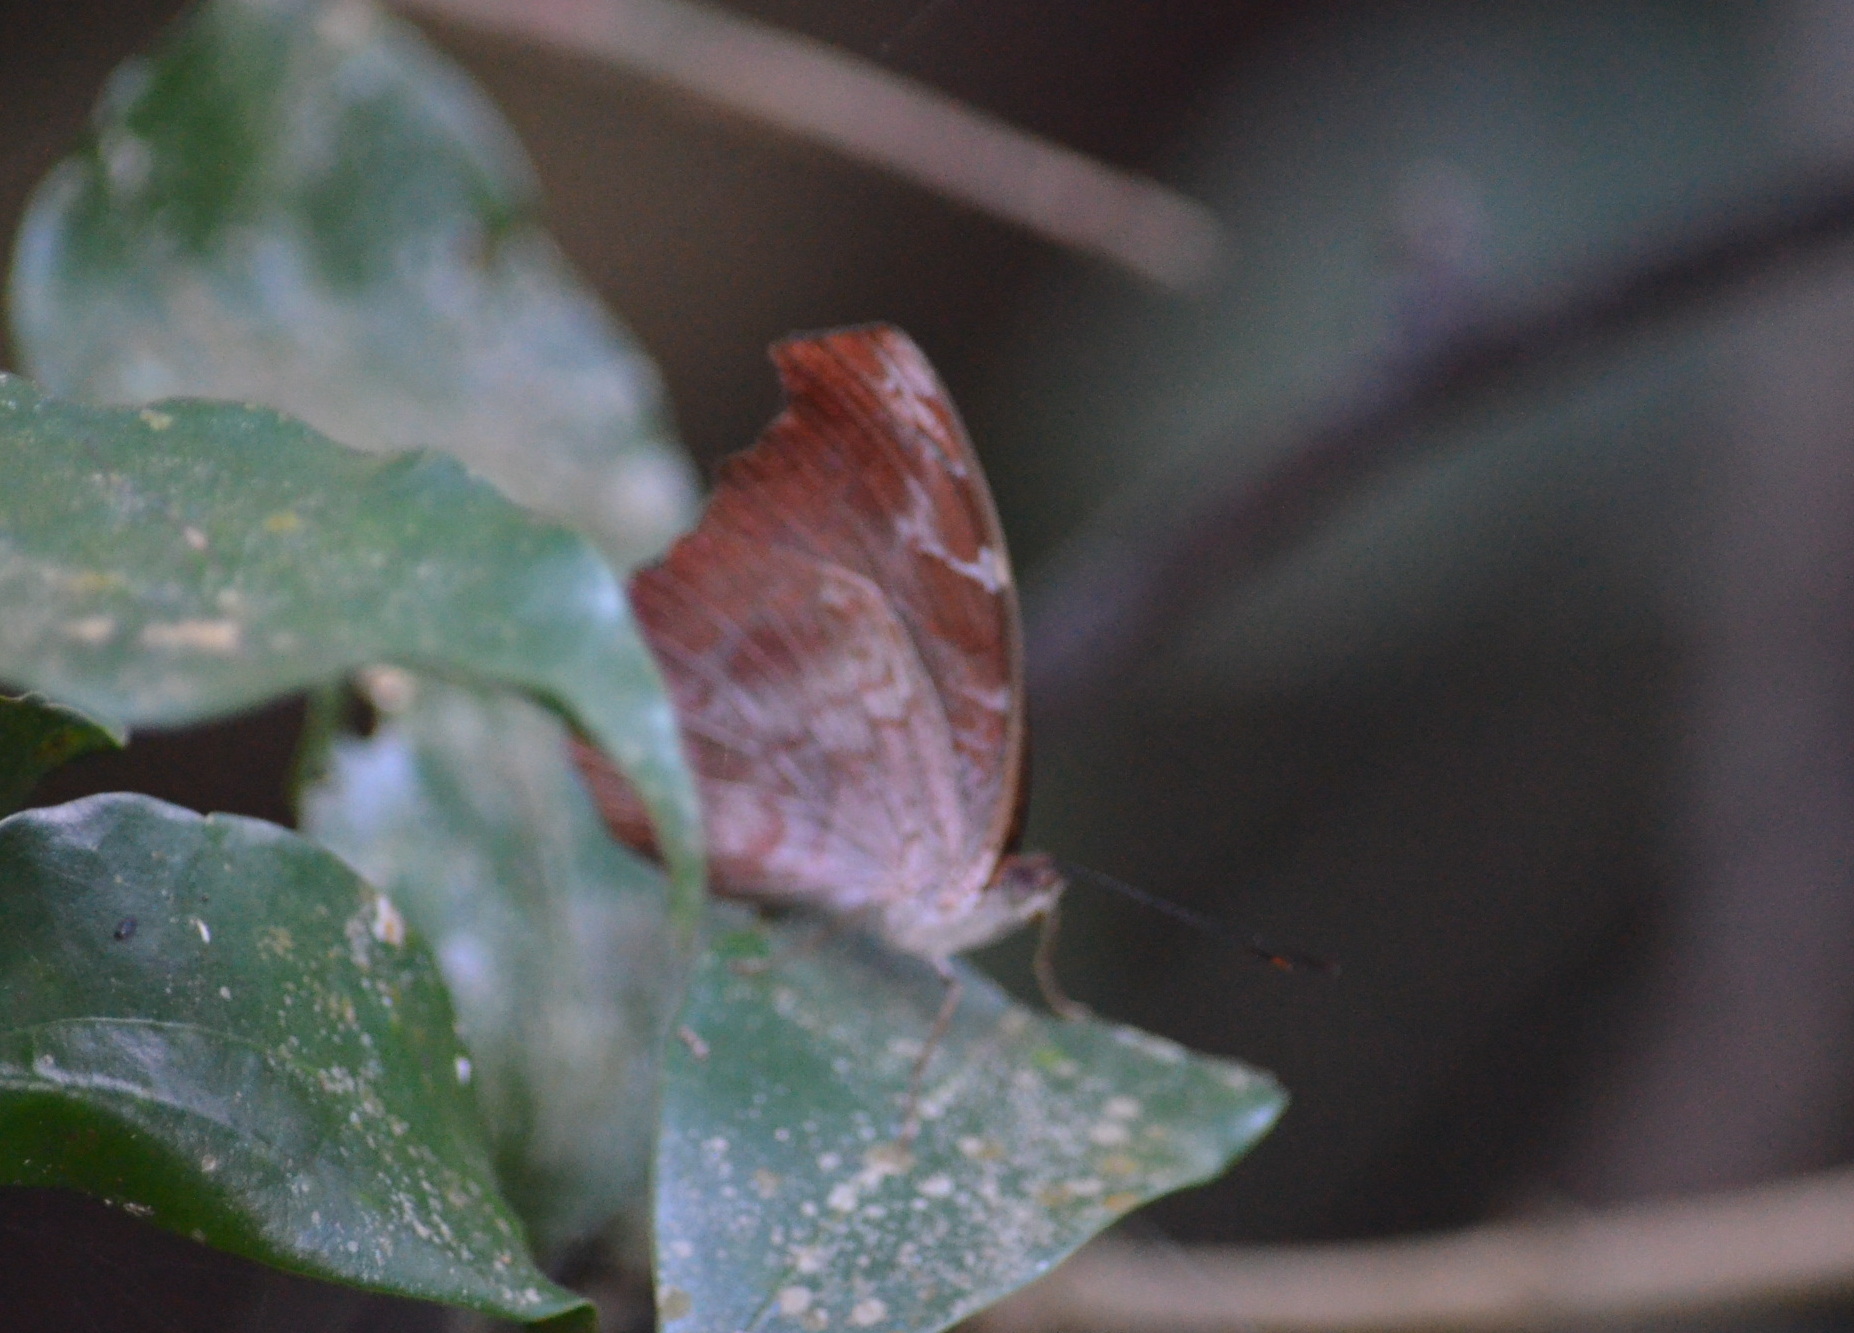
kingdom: Animalia
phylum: Arthropoda
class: Insecta
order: Lepidoptera
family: Nymphalidae
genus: Myscelia
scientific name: Myscelia orsis
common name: Orsis bluewing
